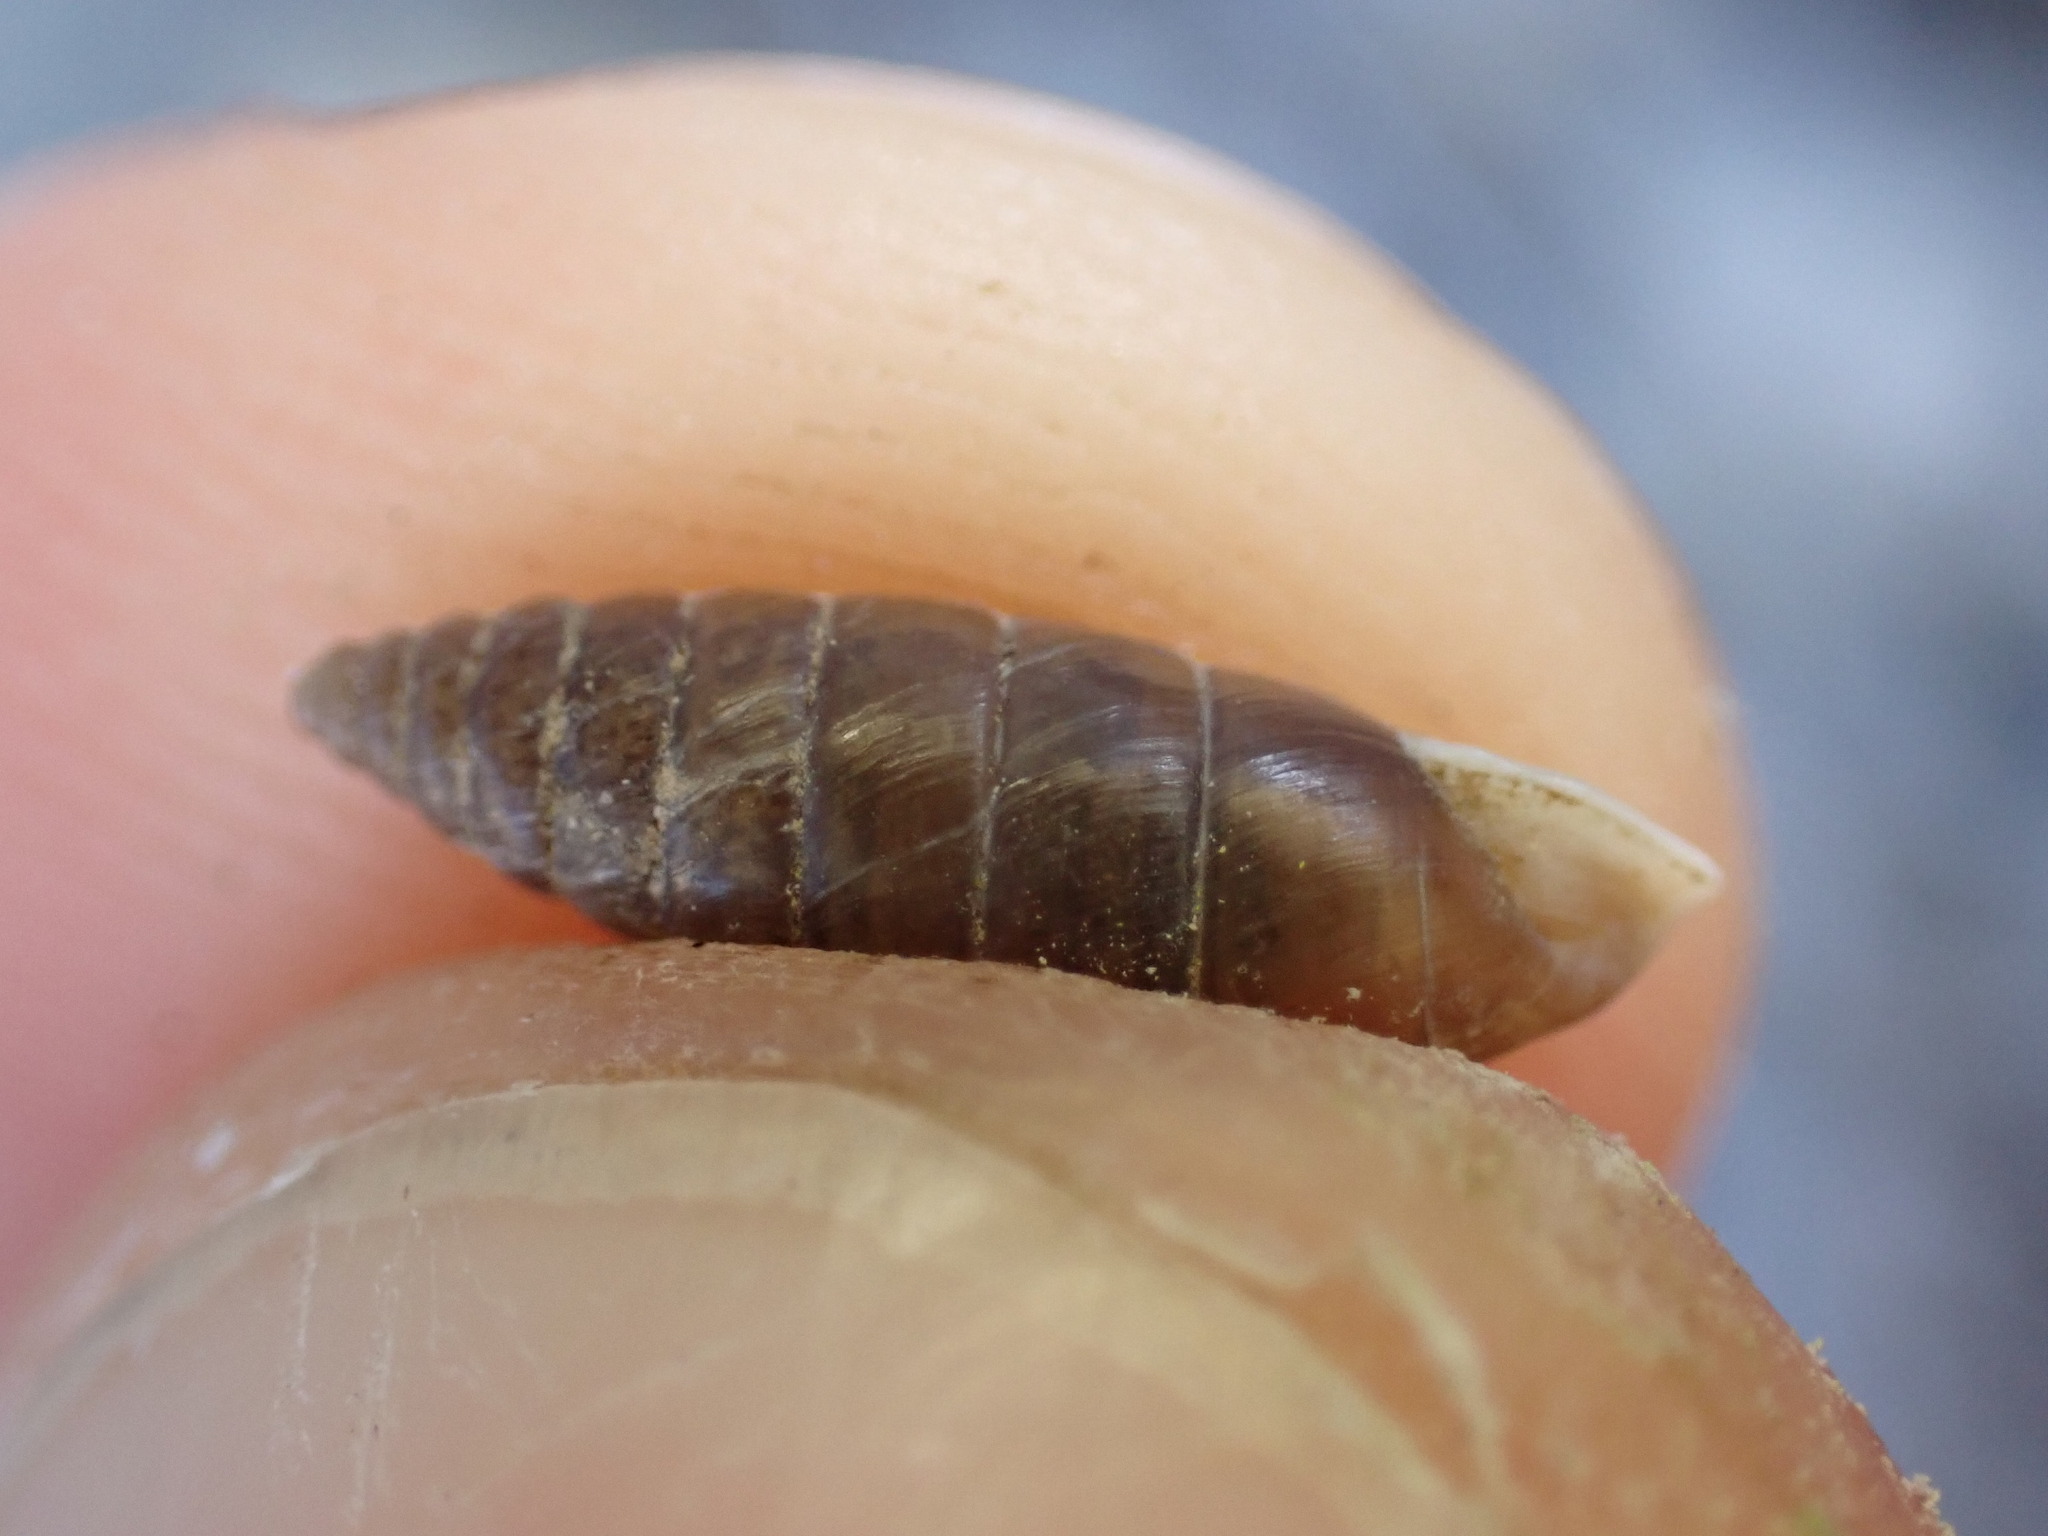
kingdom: Animalia
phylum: Mollusca
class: Gastropoda
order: Stylommatophora
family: Chondrinidae
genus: Granaria
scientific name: Granaria variabilis
